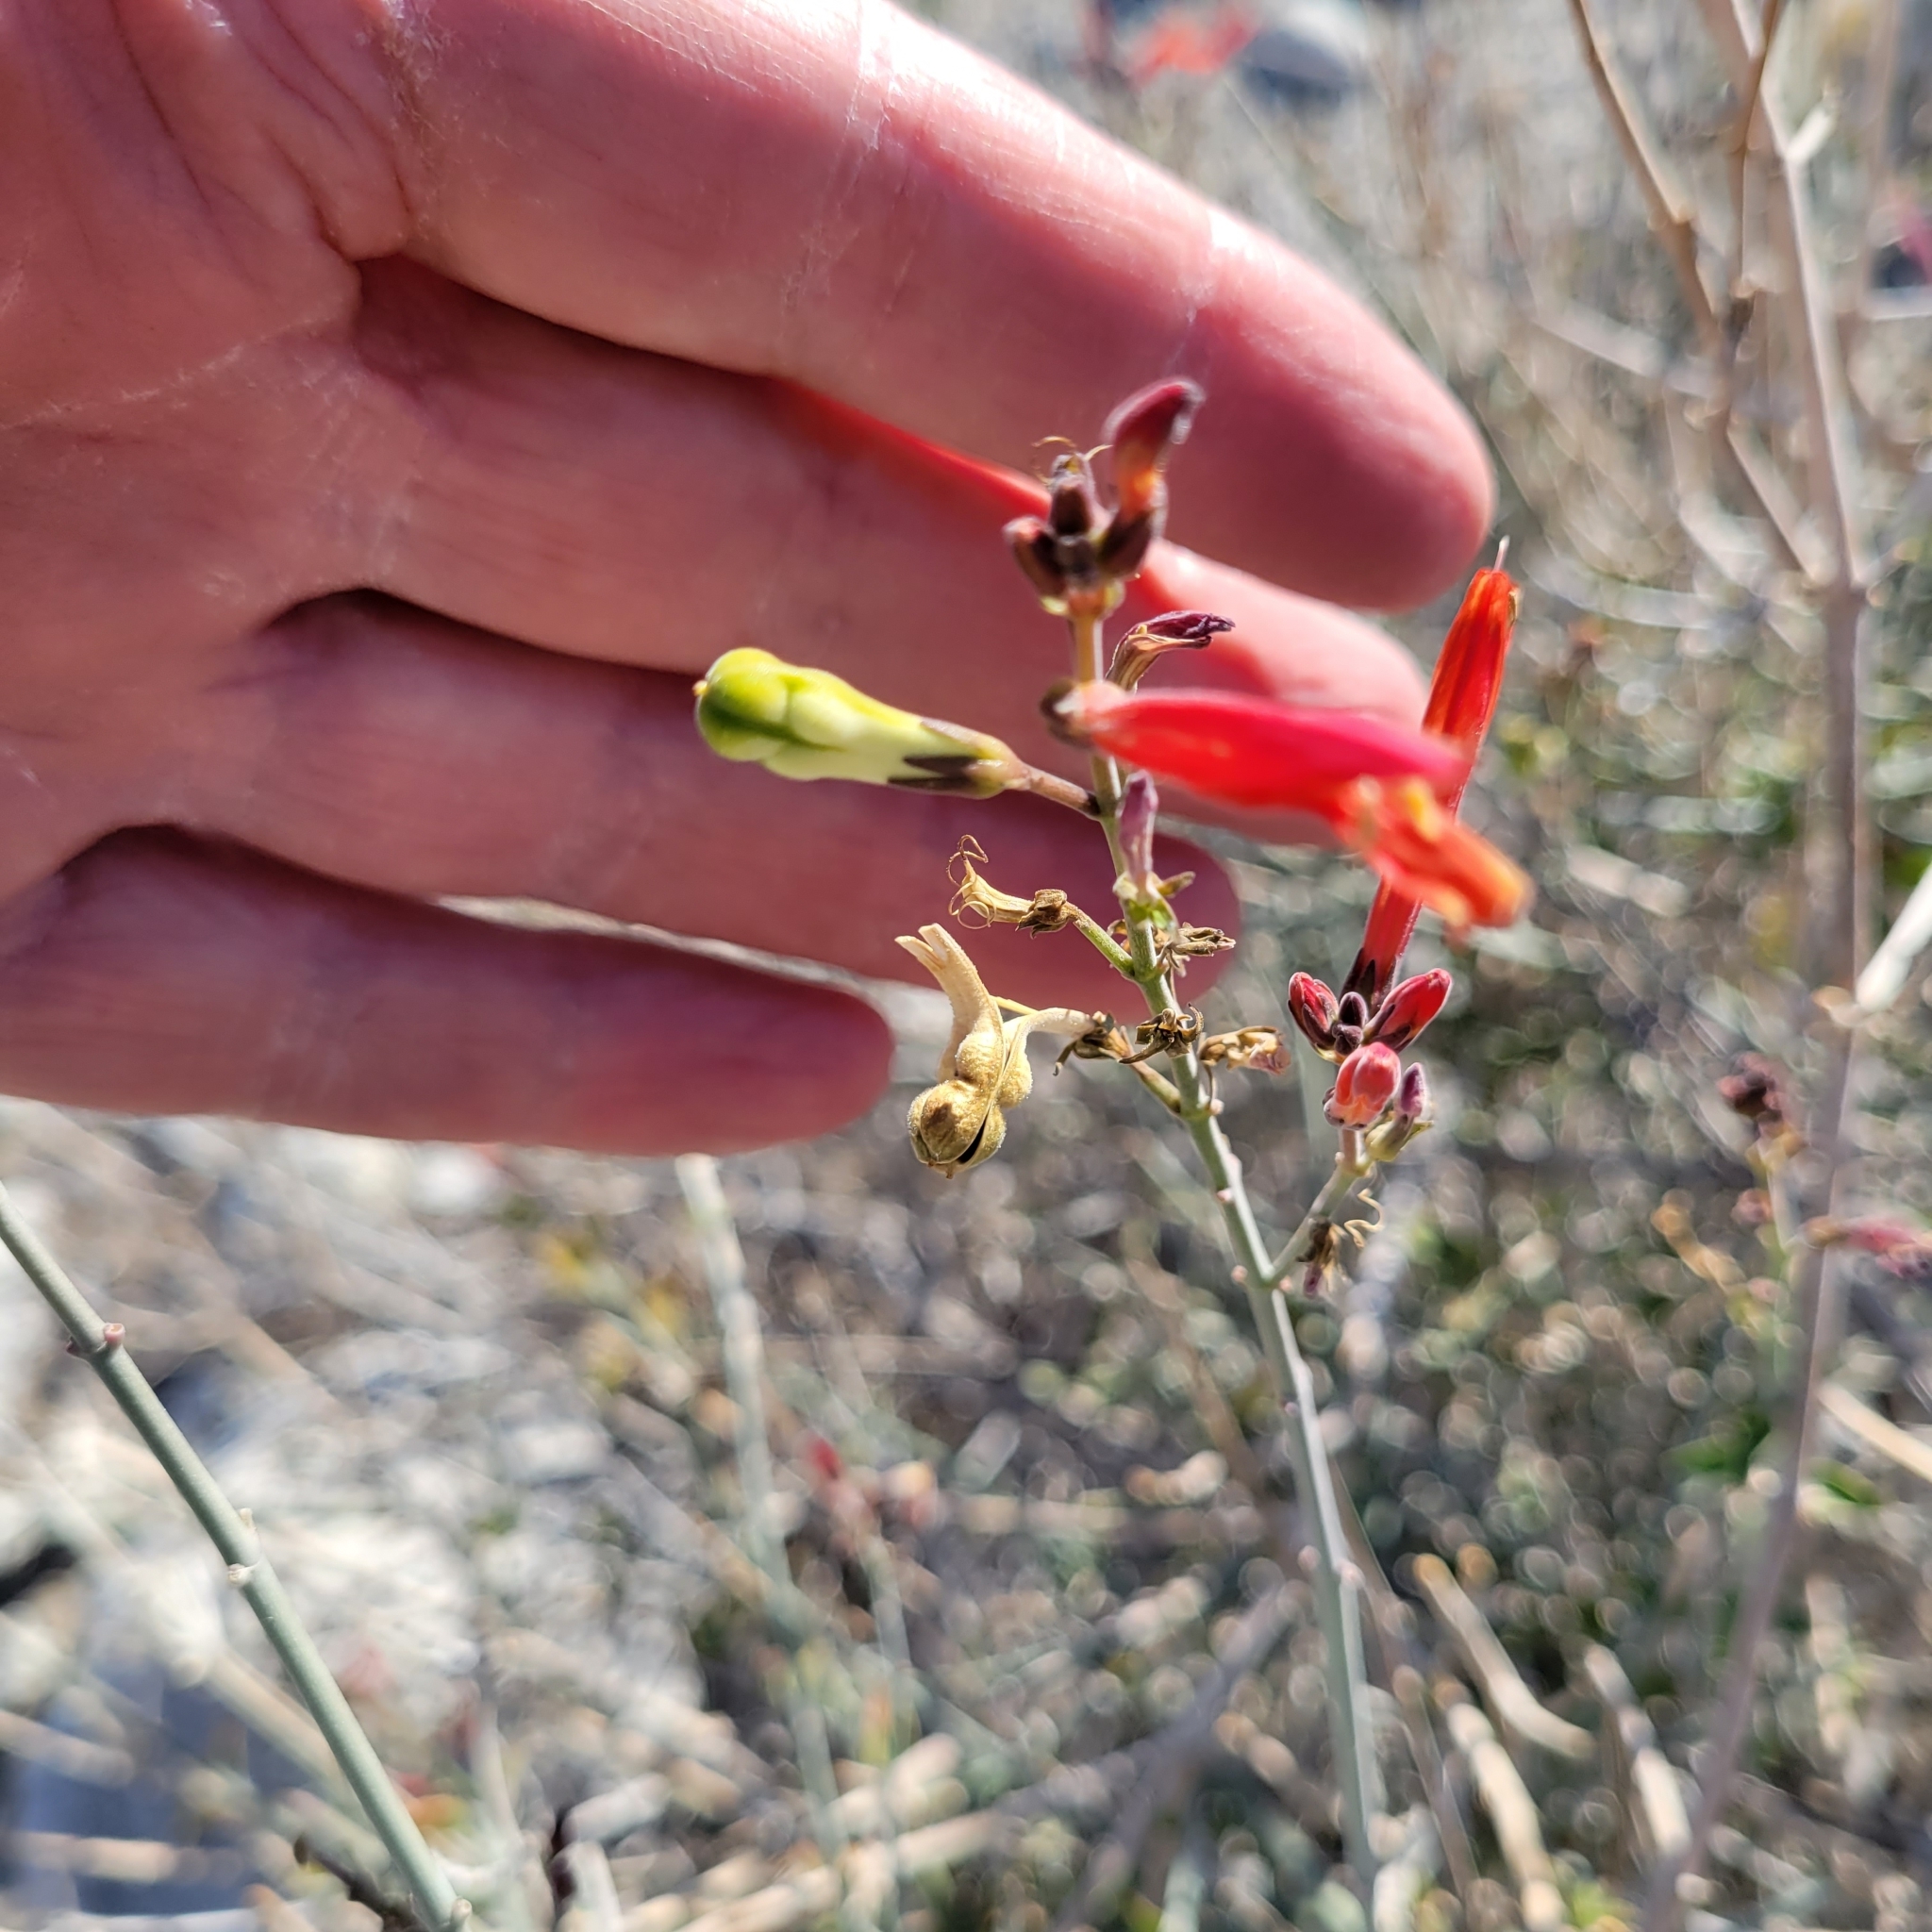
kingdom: Plantae
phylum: Tracheophyta
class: Magnoliopsida
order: Lamiales
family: Acanthaceae
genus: Justicia
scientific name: Justicia californica
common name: Chuparosa-honeysuckle
